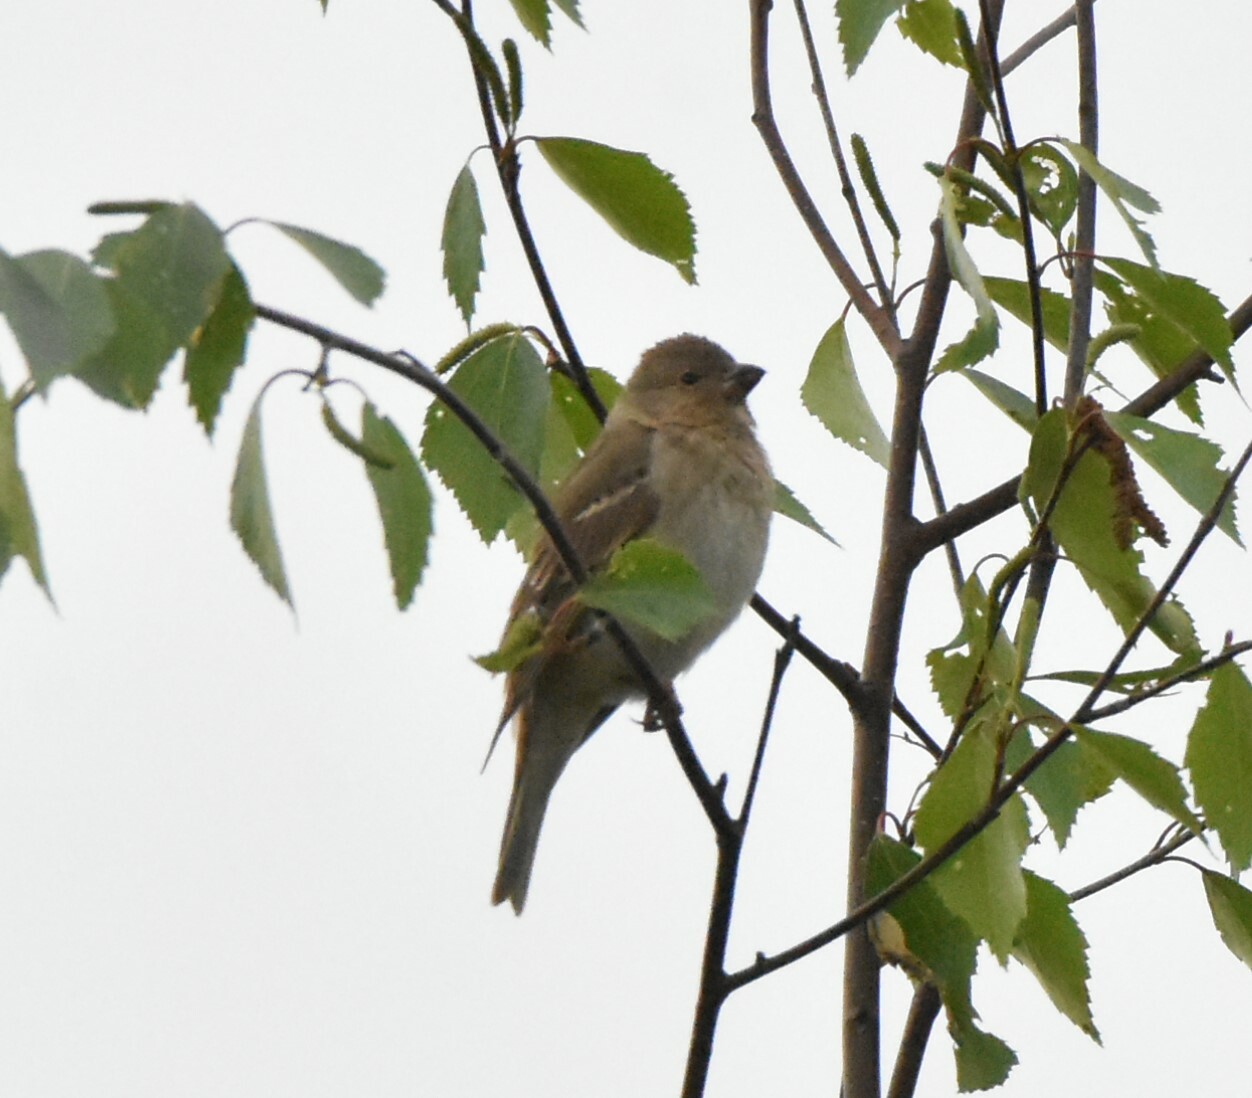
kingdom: Animalia
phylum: Chordata
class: Aves
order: Passeriformes
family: Fringillidae
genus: Carpodacus
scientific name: Carpodacus erythrinus
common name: Common rosefinch
